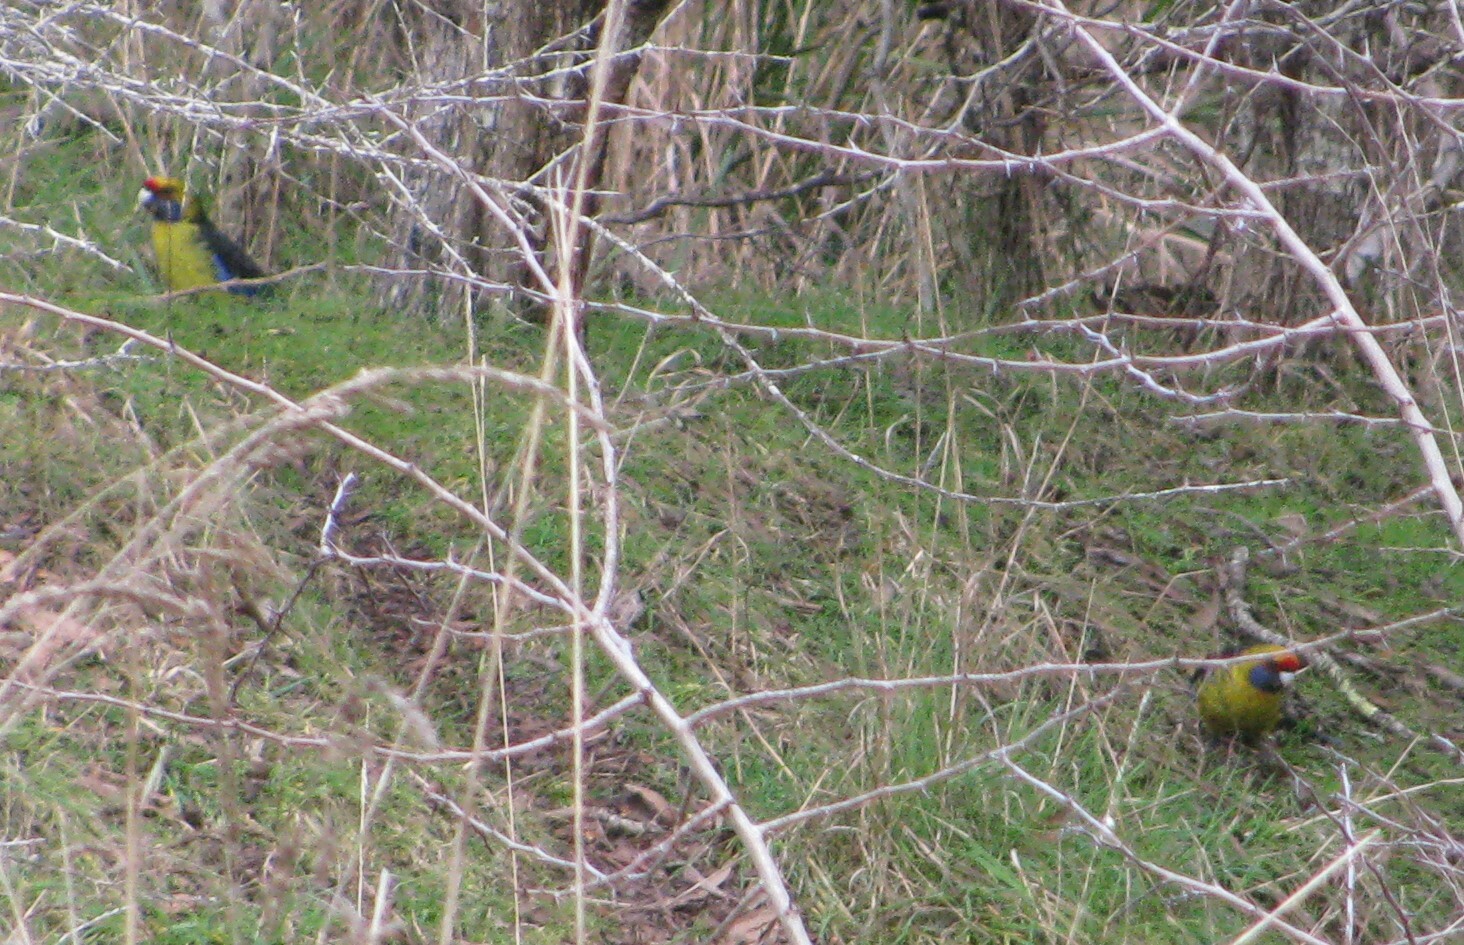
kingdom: Animalia
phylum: Chordata
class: Aves
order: Psittaciformes
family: Psittacidae
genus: Platycercus
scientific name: Platycercus caledonicus
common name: Green rosella
